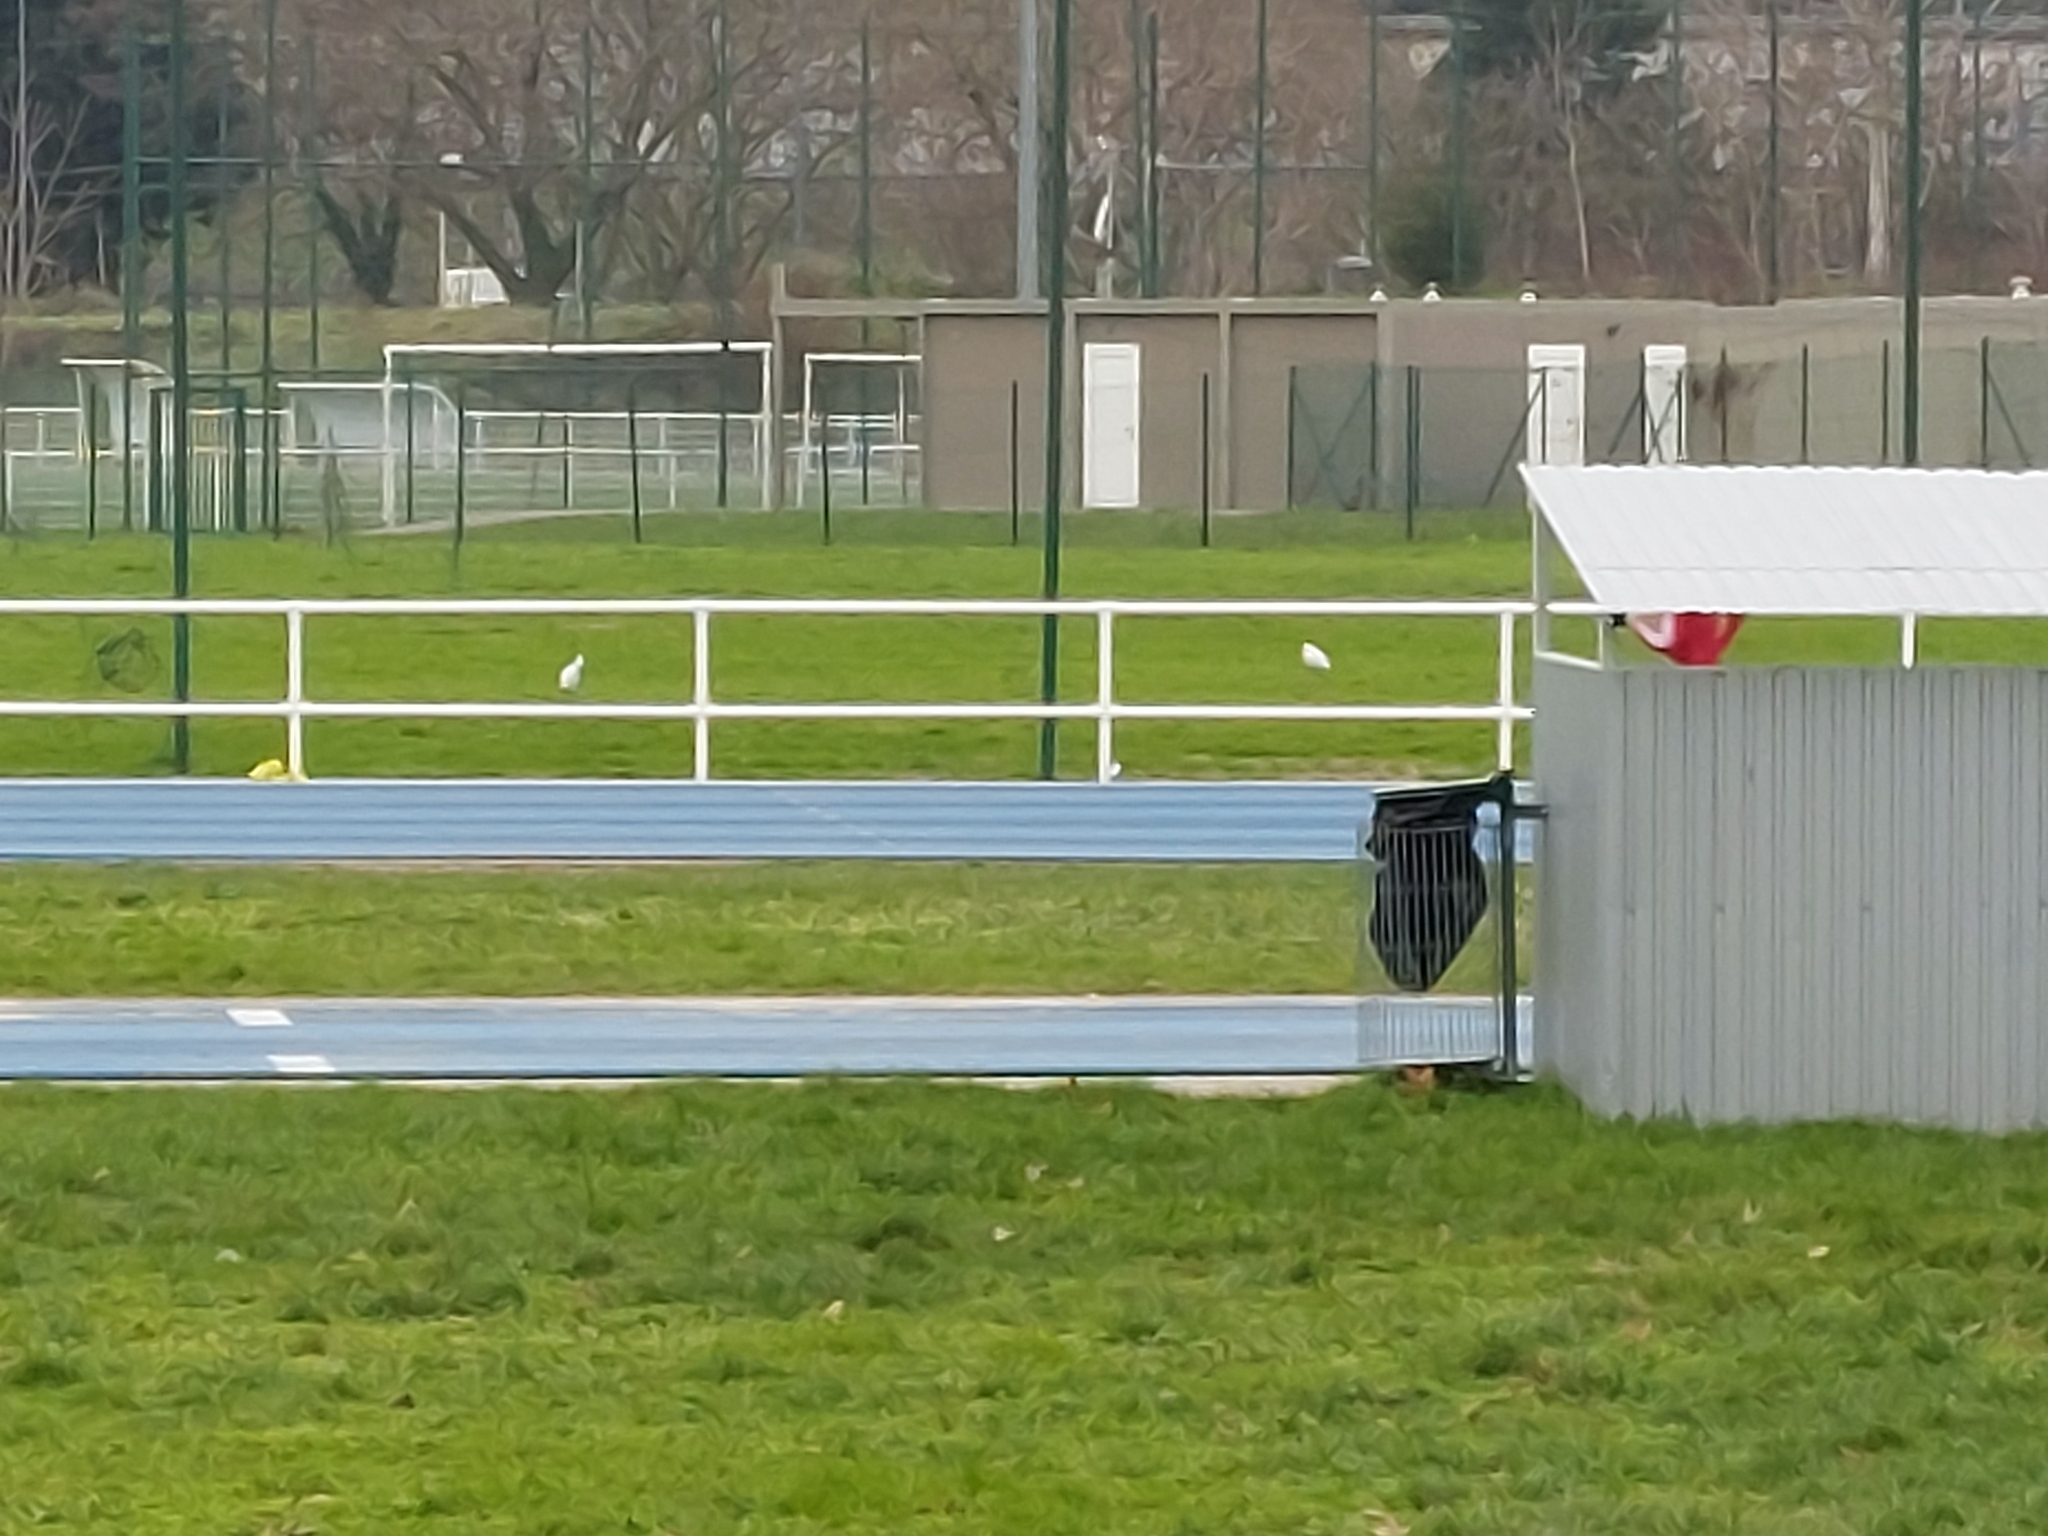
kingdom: Animalia
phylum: Chordata
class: Aves
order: Pelecaniformes
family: Ardeidae
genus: Bubulcus
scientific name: Bubulcus ibis
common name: Cattle egret
